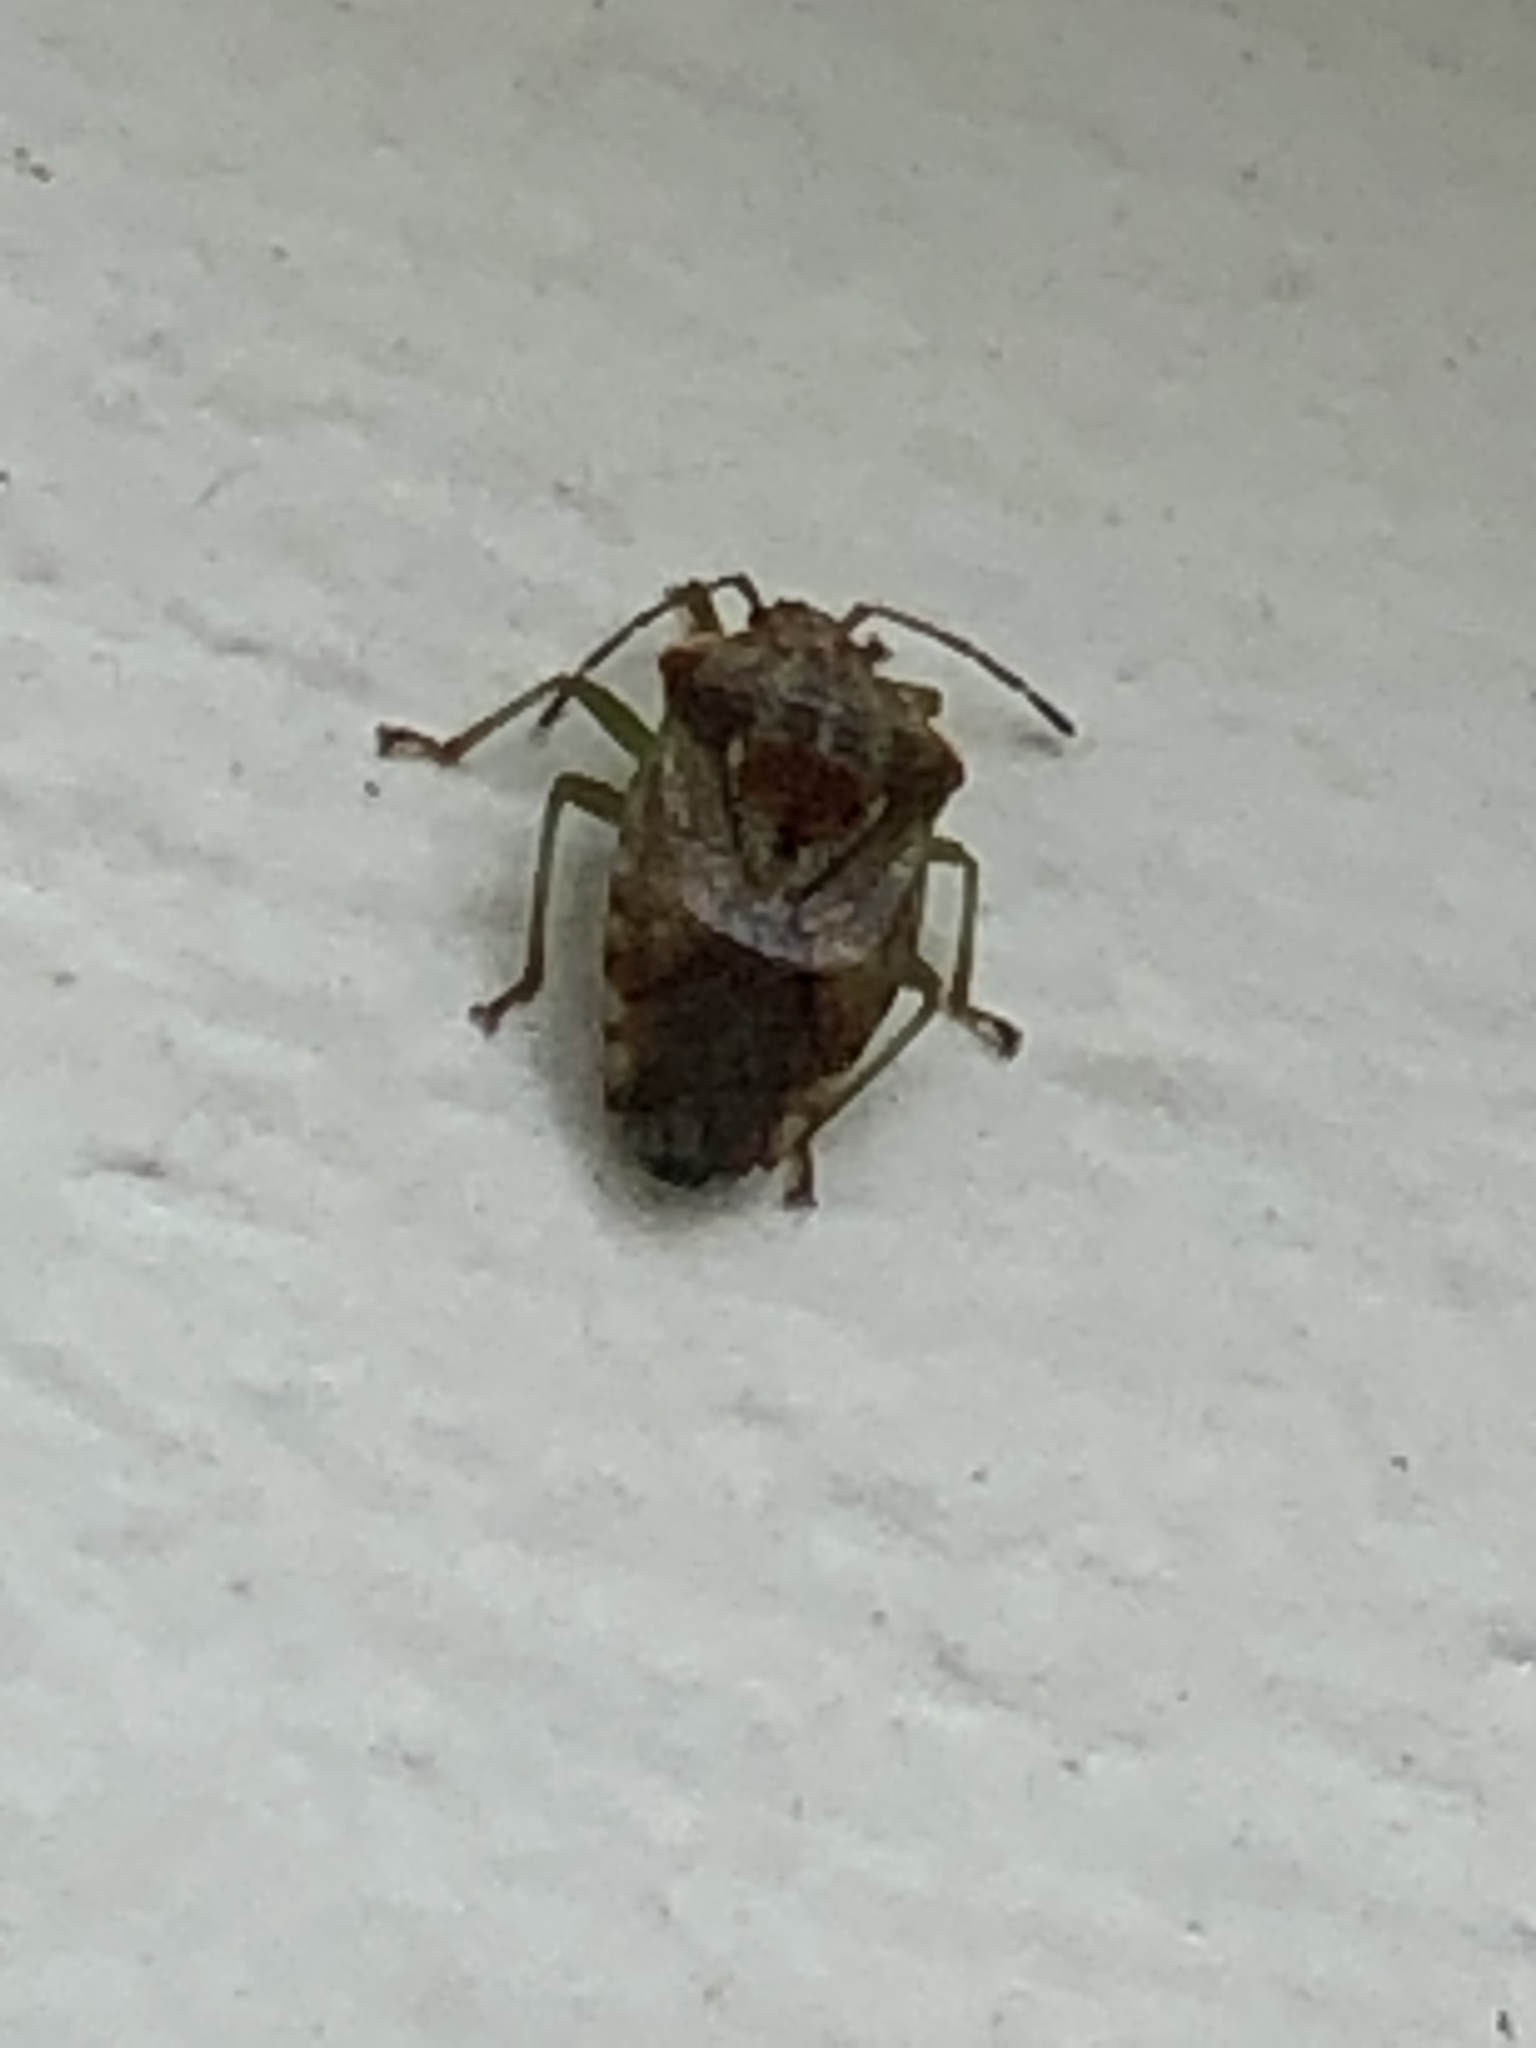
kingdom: Animalia
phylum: Arthropoda
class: Insecta
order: Hemiptera
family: Acanthosomatidae
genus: Elasmucha
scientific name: Elasmucha lateralis
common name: Shield bug
